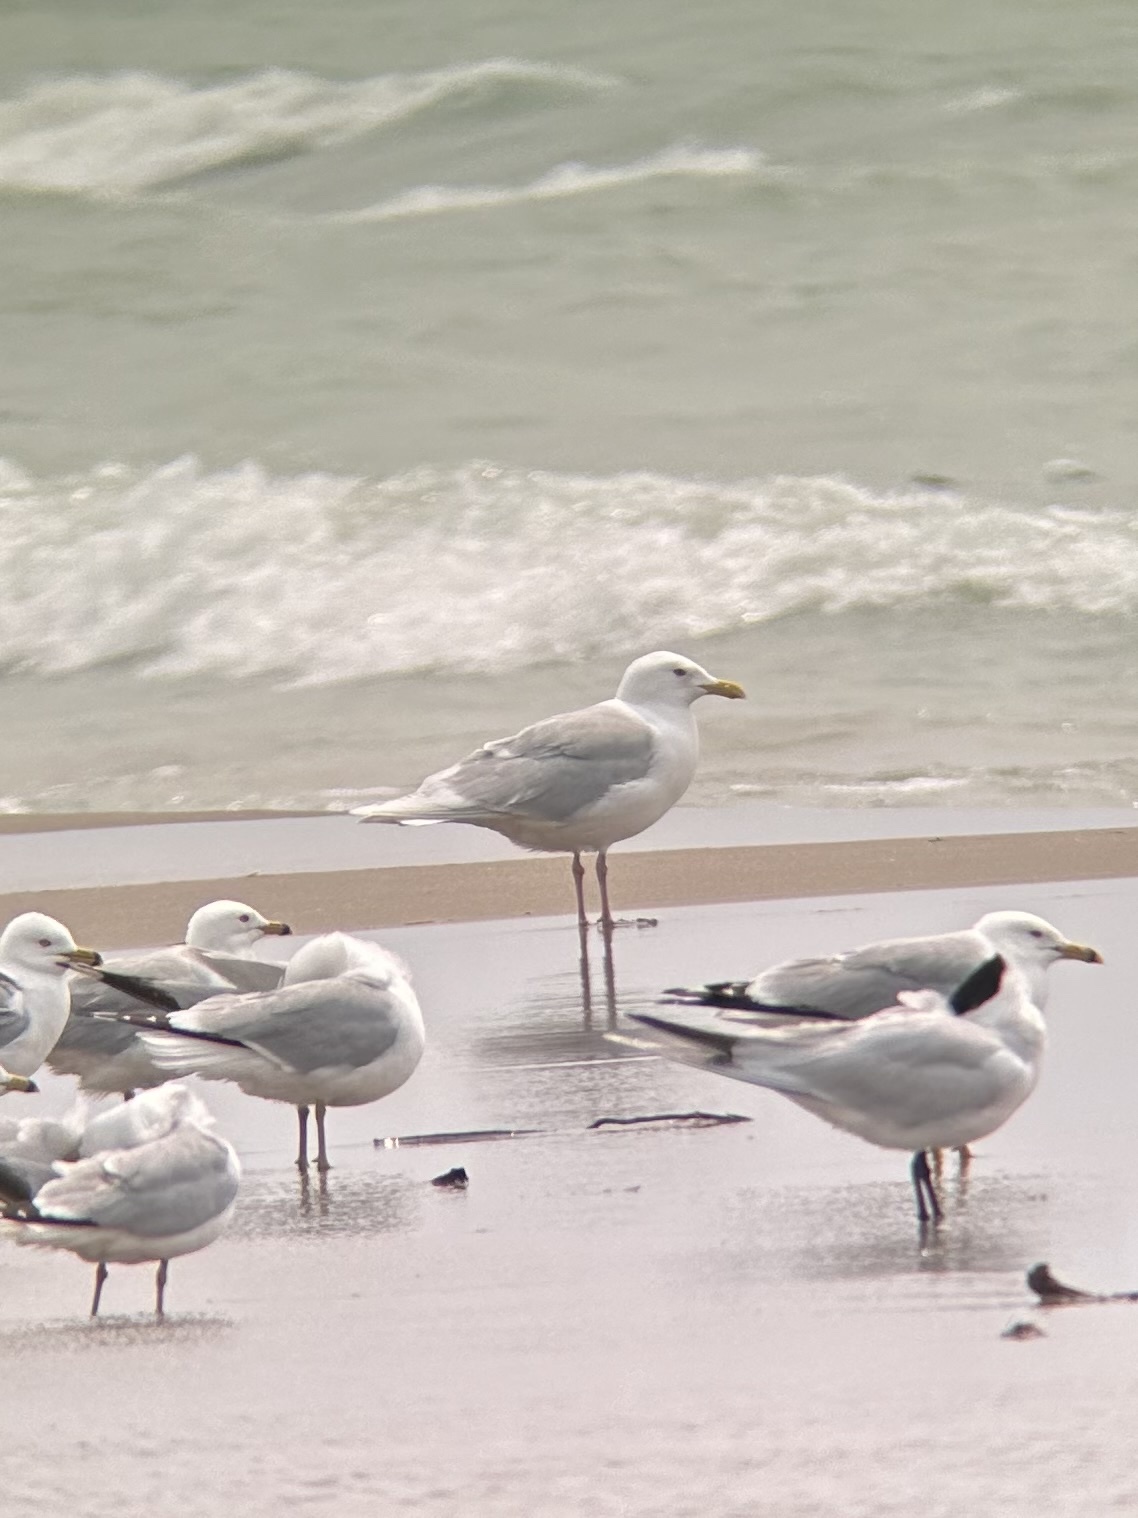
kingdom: Animalia
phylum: Chordata
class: Aves
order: Charadriiformes
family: Laridae
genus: Larus
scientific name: Larus glaucoides
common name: Iceland gull
